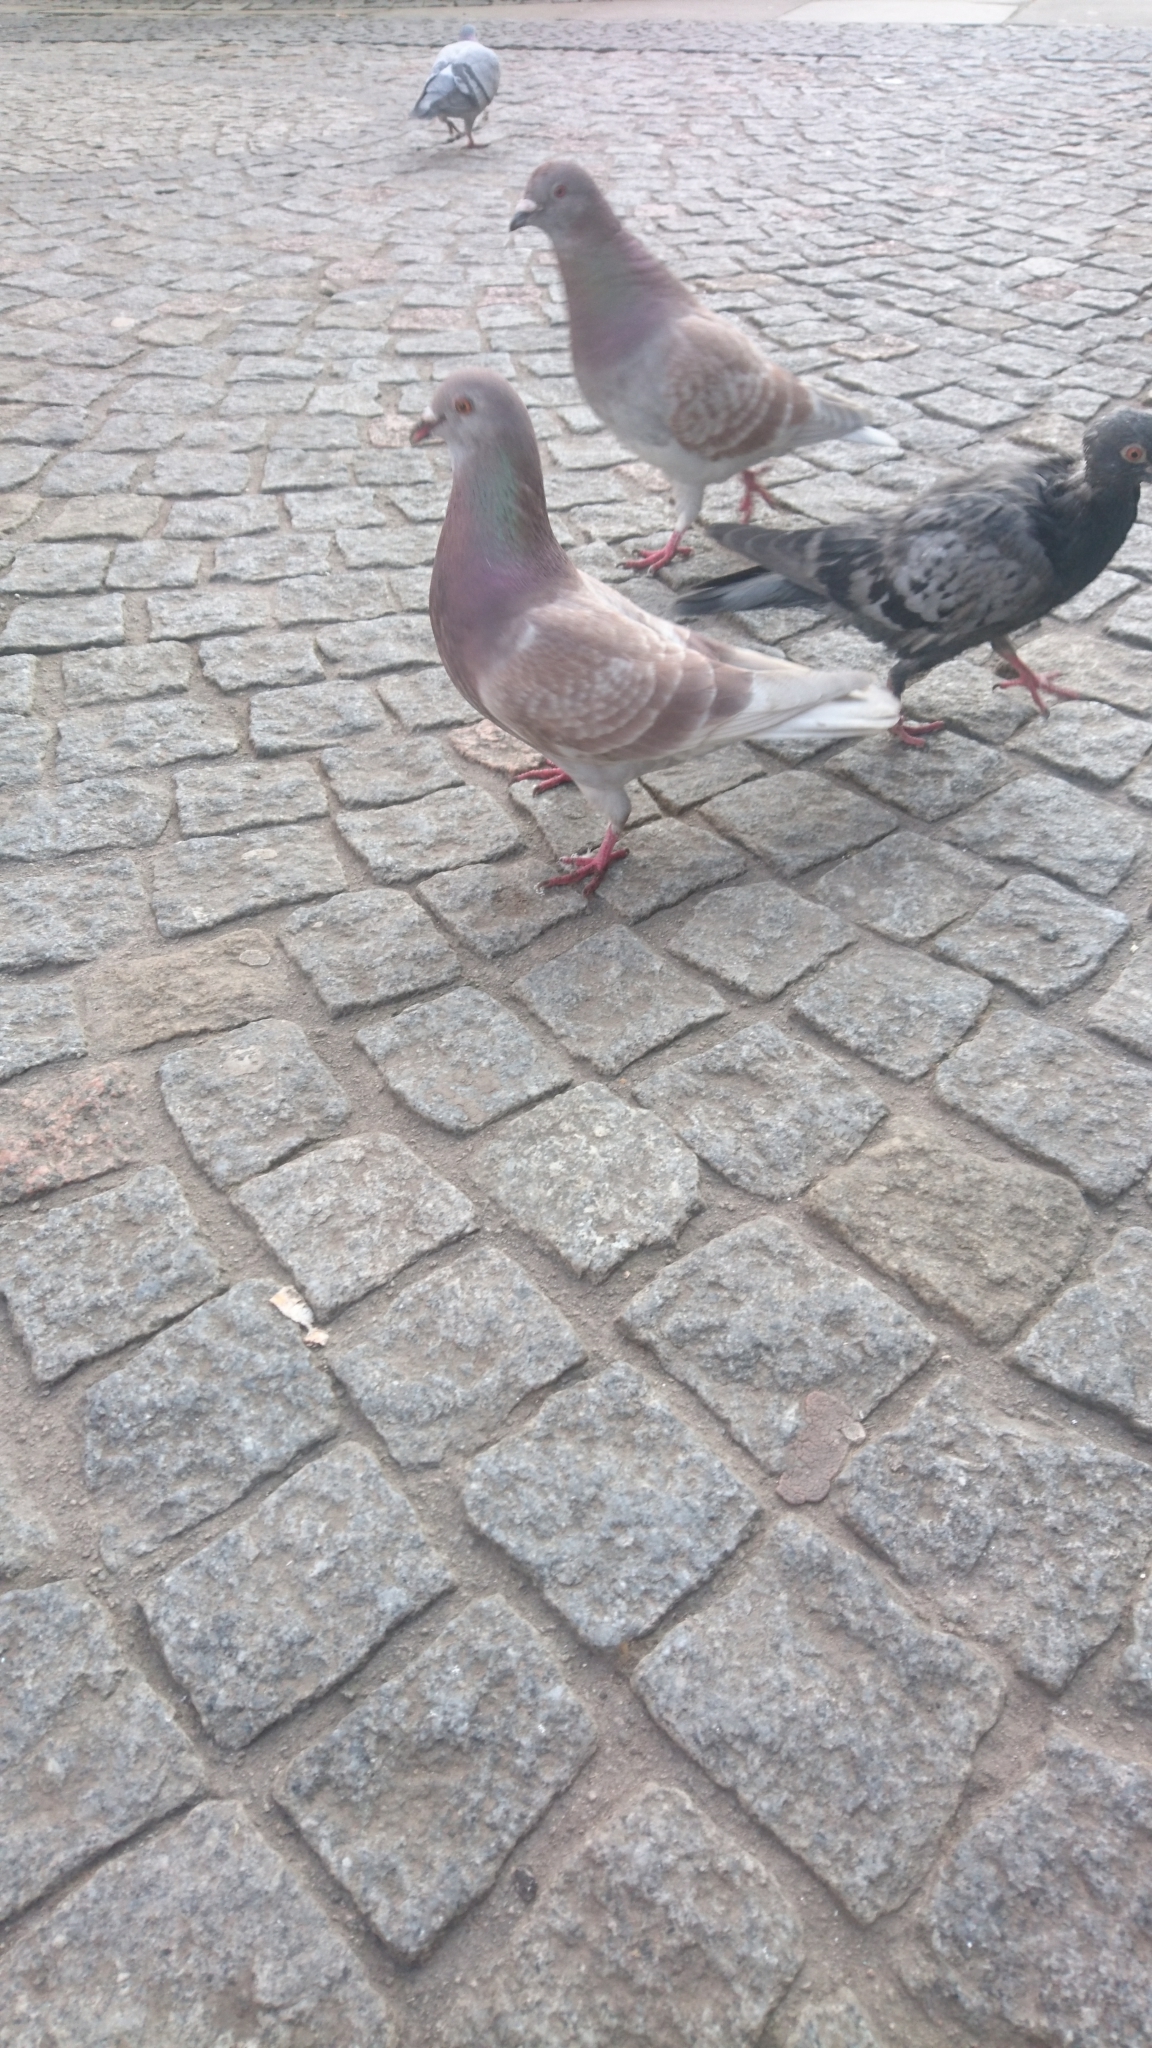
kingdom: Animalia
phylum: Chordata
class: Aves
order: Columbiformes
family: Columbidae
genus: Columba
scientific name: Columba livia
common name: Rock pigeon
